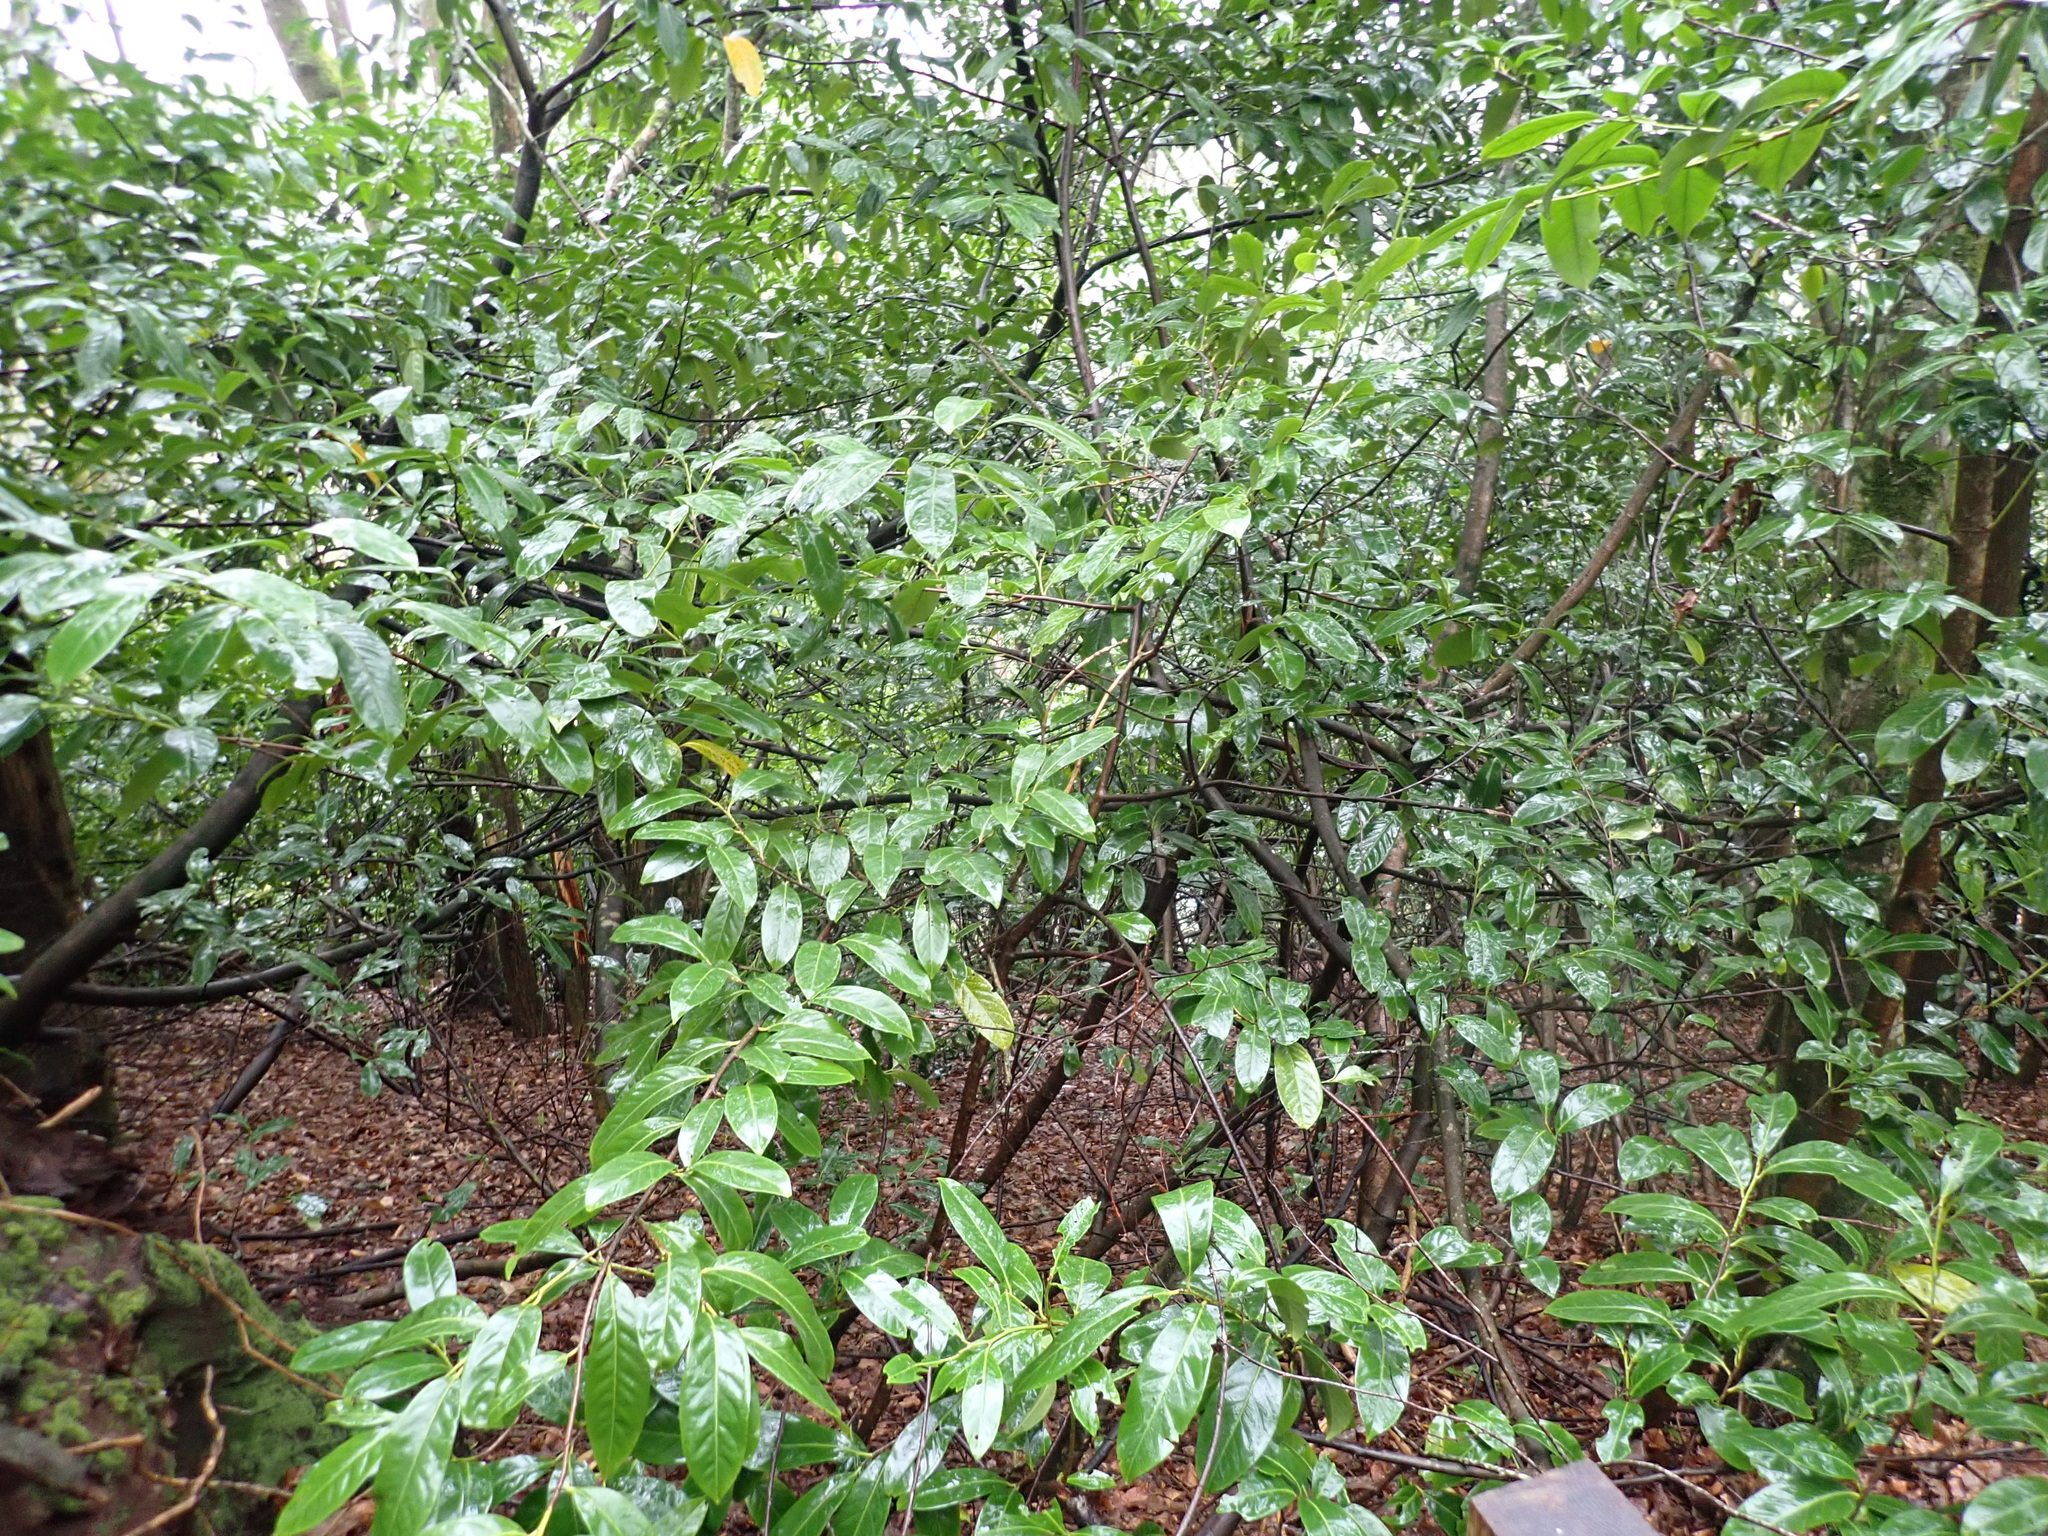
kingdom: Plantae
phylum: Tracheophyta
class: Magnoliopsida
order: Rosales
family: Rosaceae
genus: Prunus
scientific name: Prunus laurocerasus
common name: Cherry laurel
